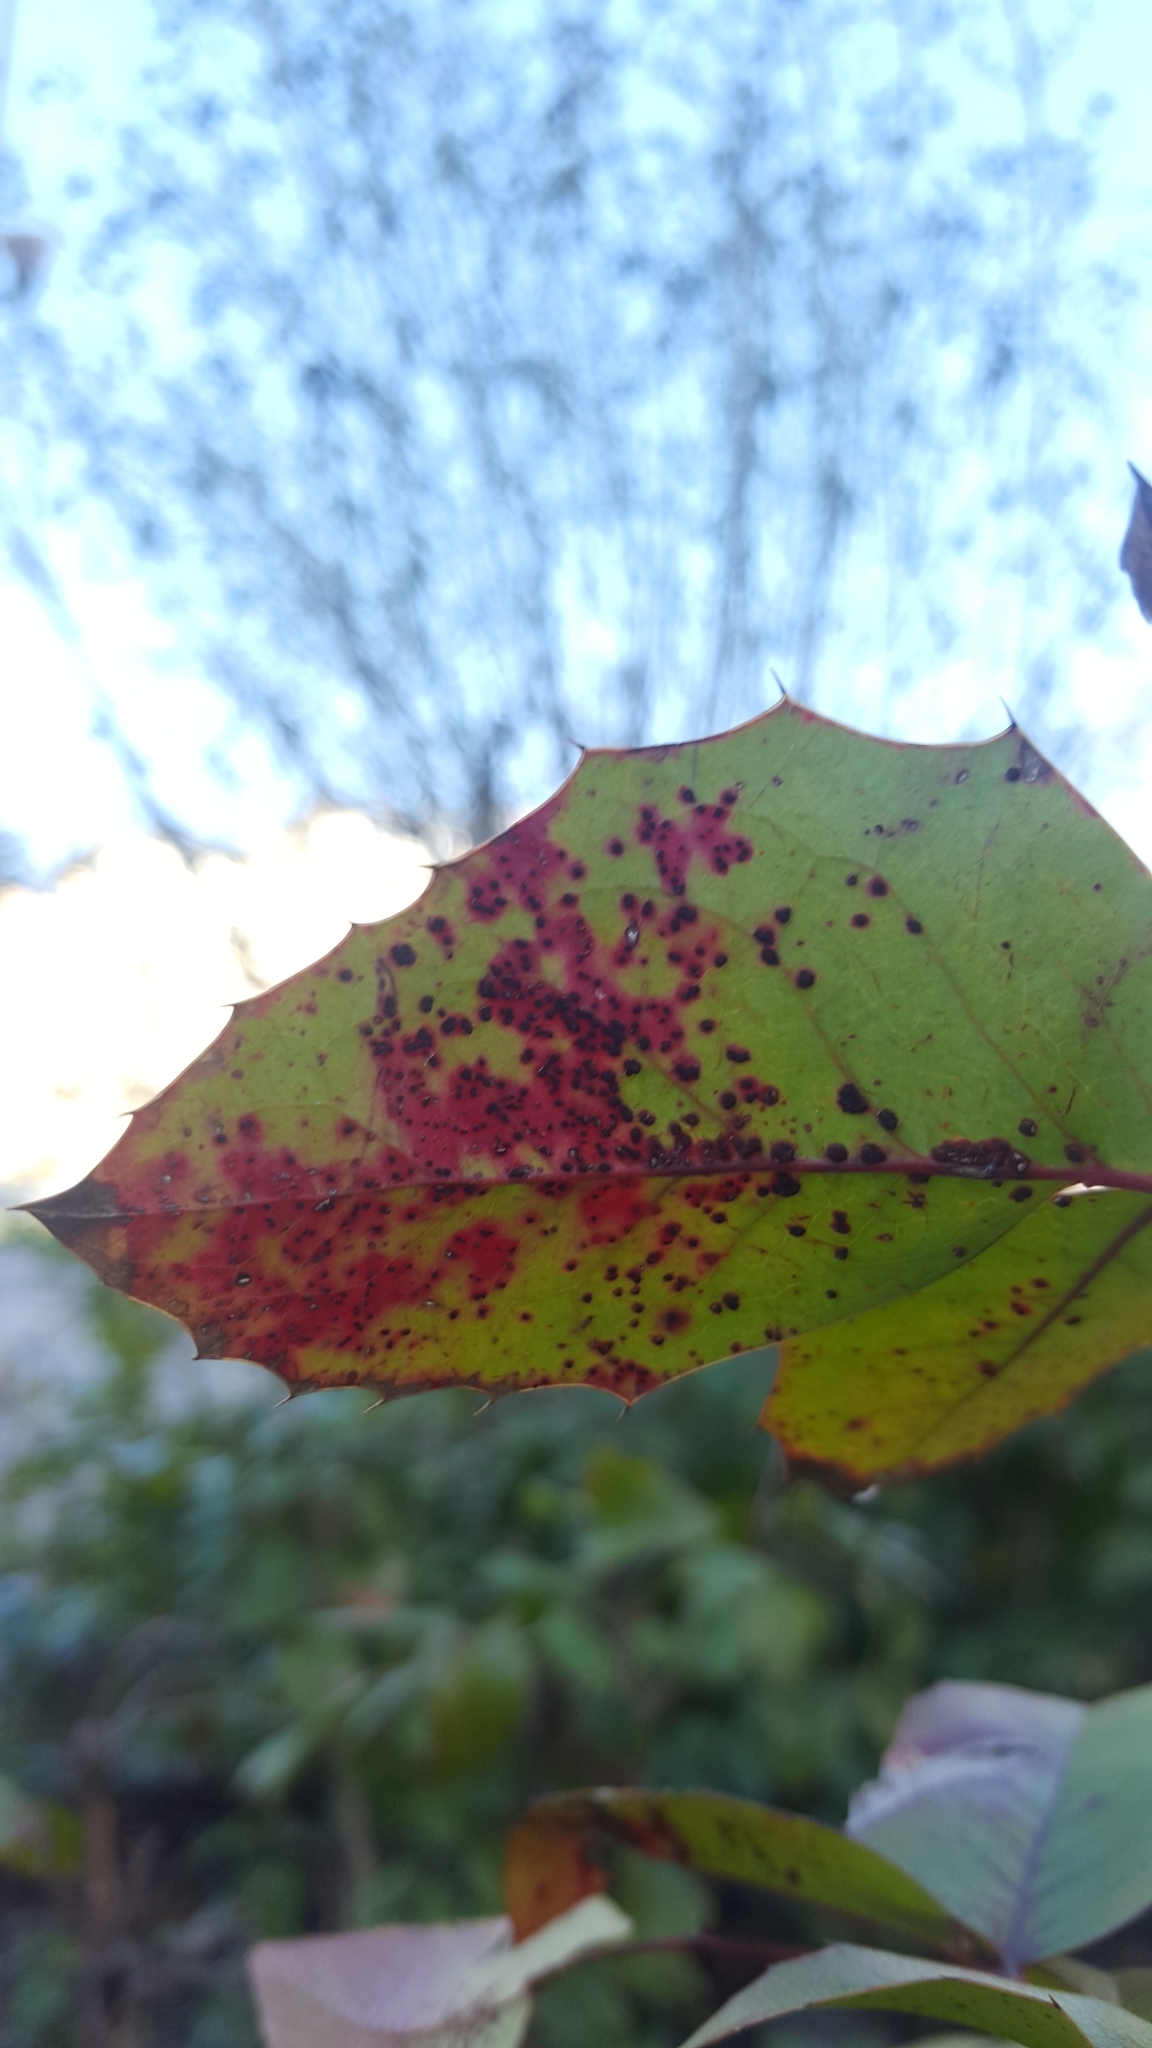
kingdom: Fungi
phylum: Basidiomycota
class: Pucciniomycetes
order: Pucciniales
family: Pucciniaceae
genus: Cumminsiella
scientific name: Cumminsiella mirabilissima
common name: Mahonia rust
